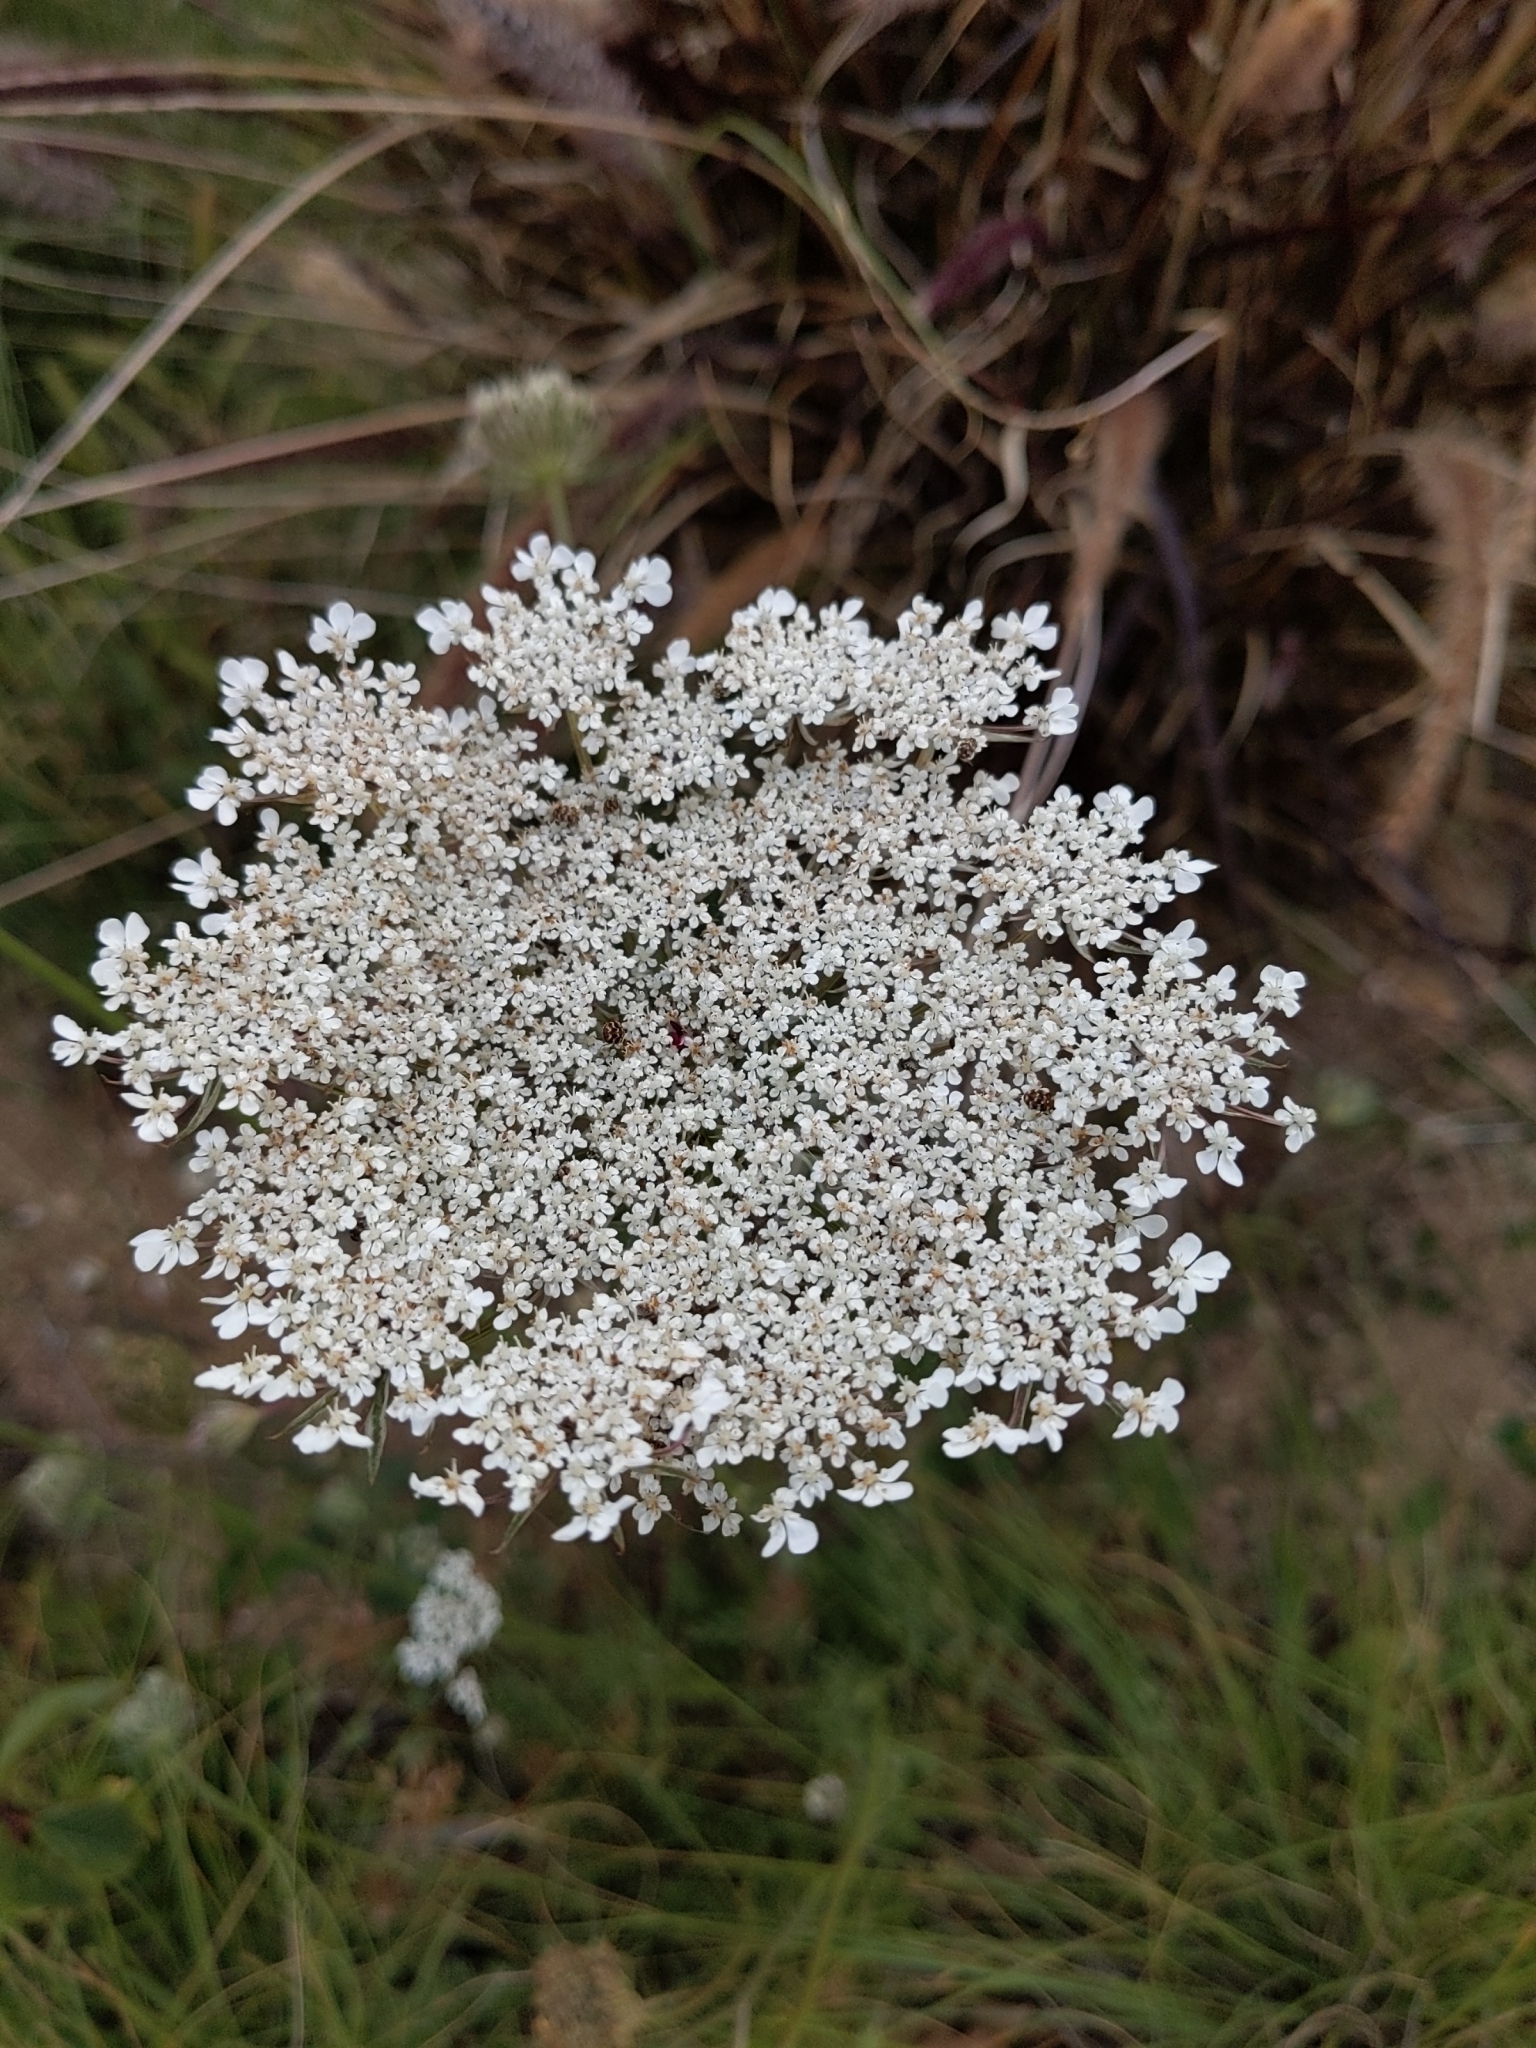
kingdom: Plantae
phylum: Tracheophyta
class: Magnoliopsida
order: Apiales
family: Apiaceae
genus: Daucus
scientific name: Daucus carota
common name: Wild carrot
